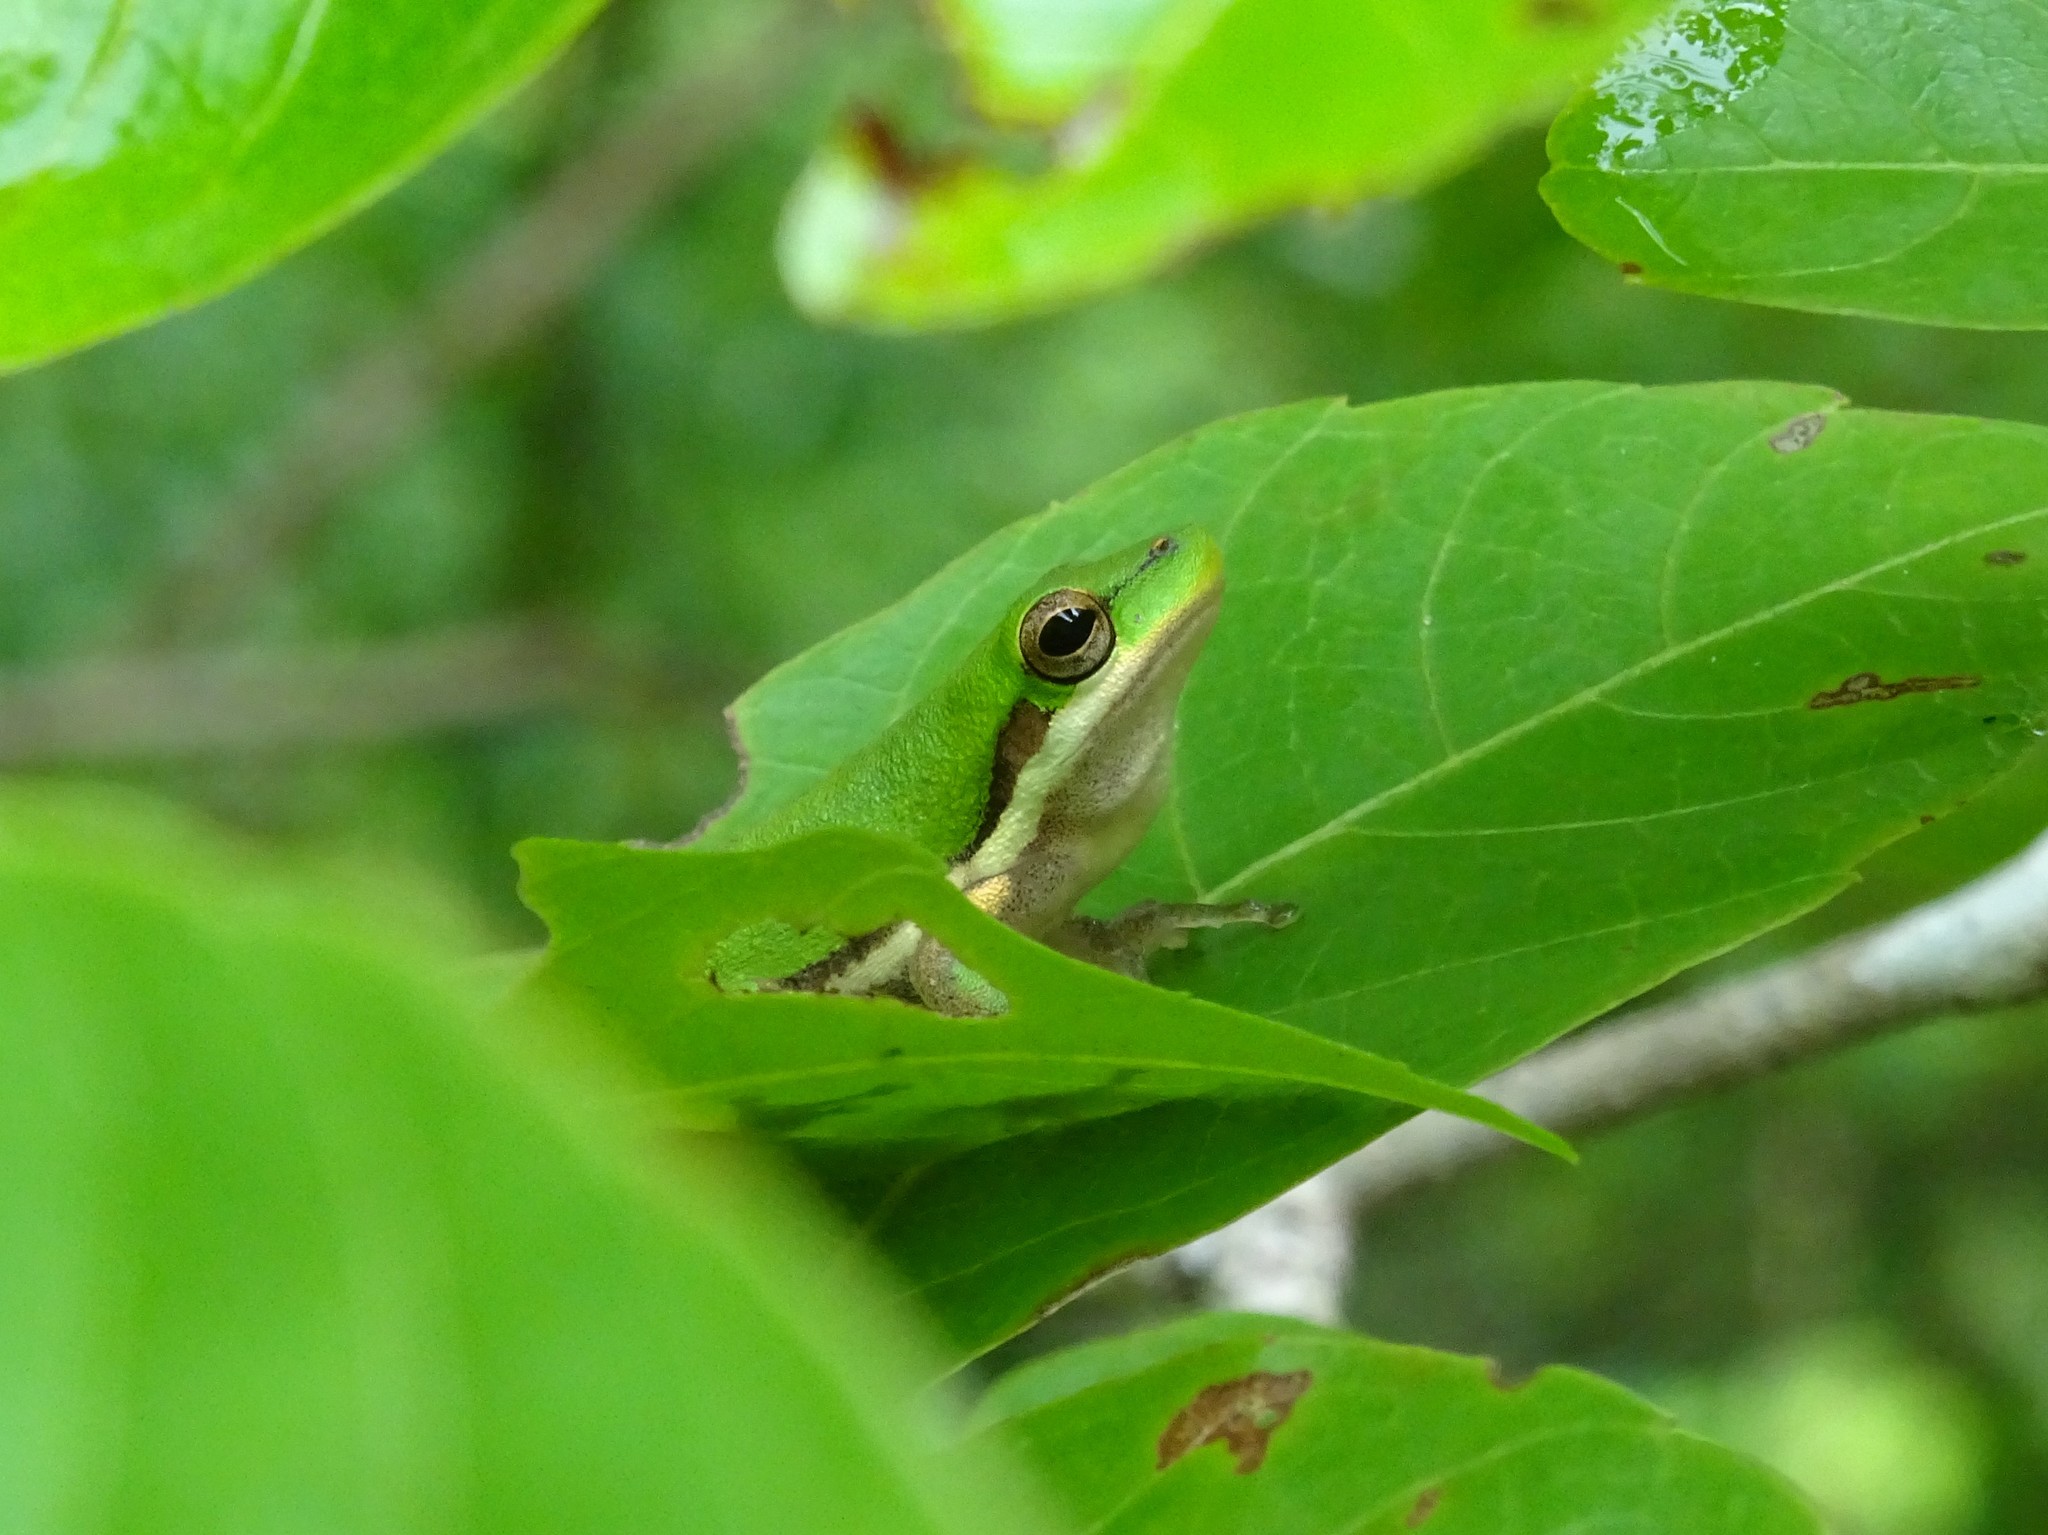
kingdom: Animalia
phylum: Chordata
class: Amphibia
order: Anura
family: Pelodryadidae
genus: Litoria
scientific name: Litoria bicolor
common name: Green reed frog
